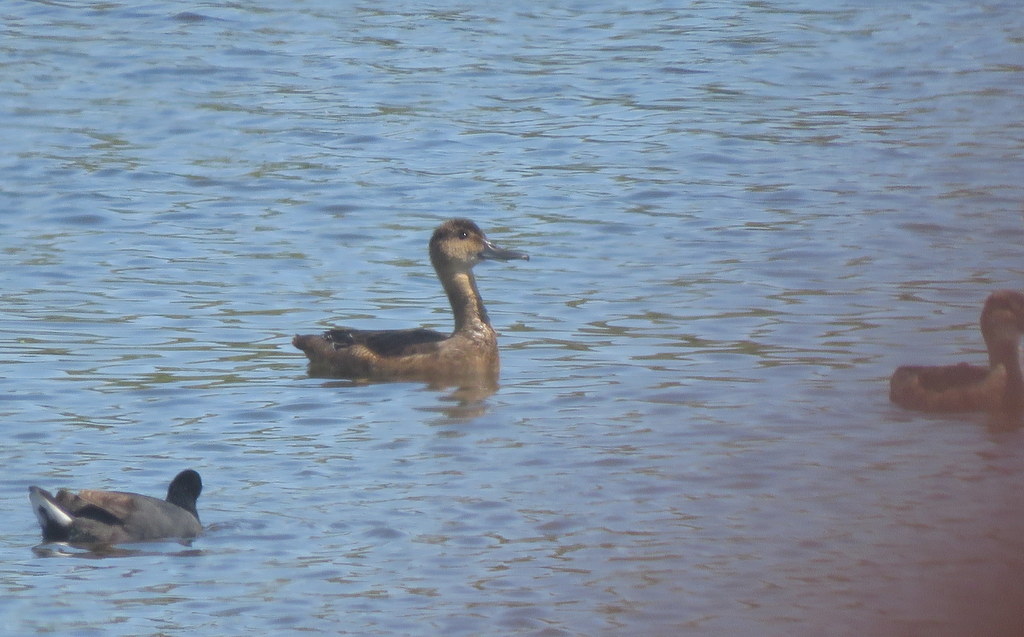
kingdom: Animalia
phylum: Chordata
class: Aves
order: Anseriformes
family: Anatidae
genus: Heteronetta
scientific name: Heteronetta atricapilla
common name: Black-headed duck
